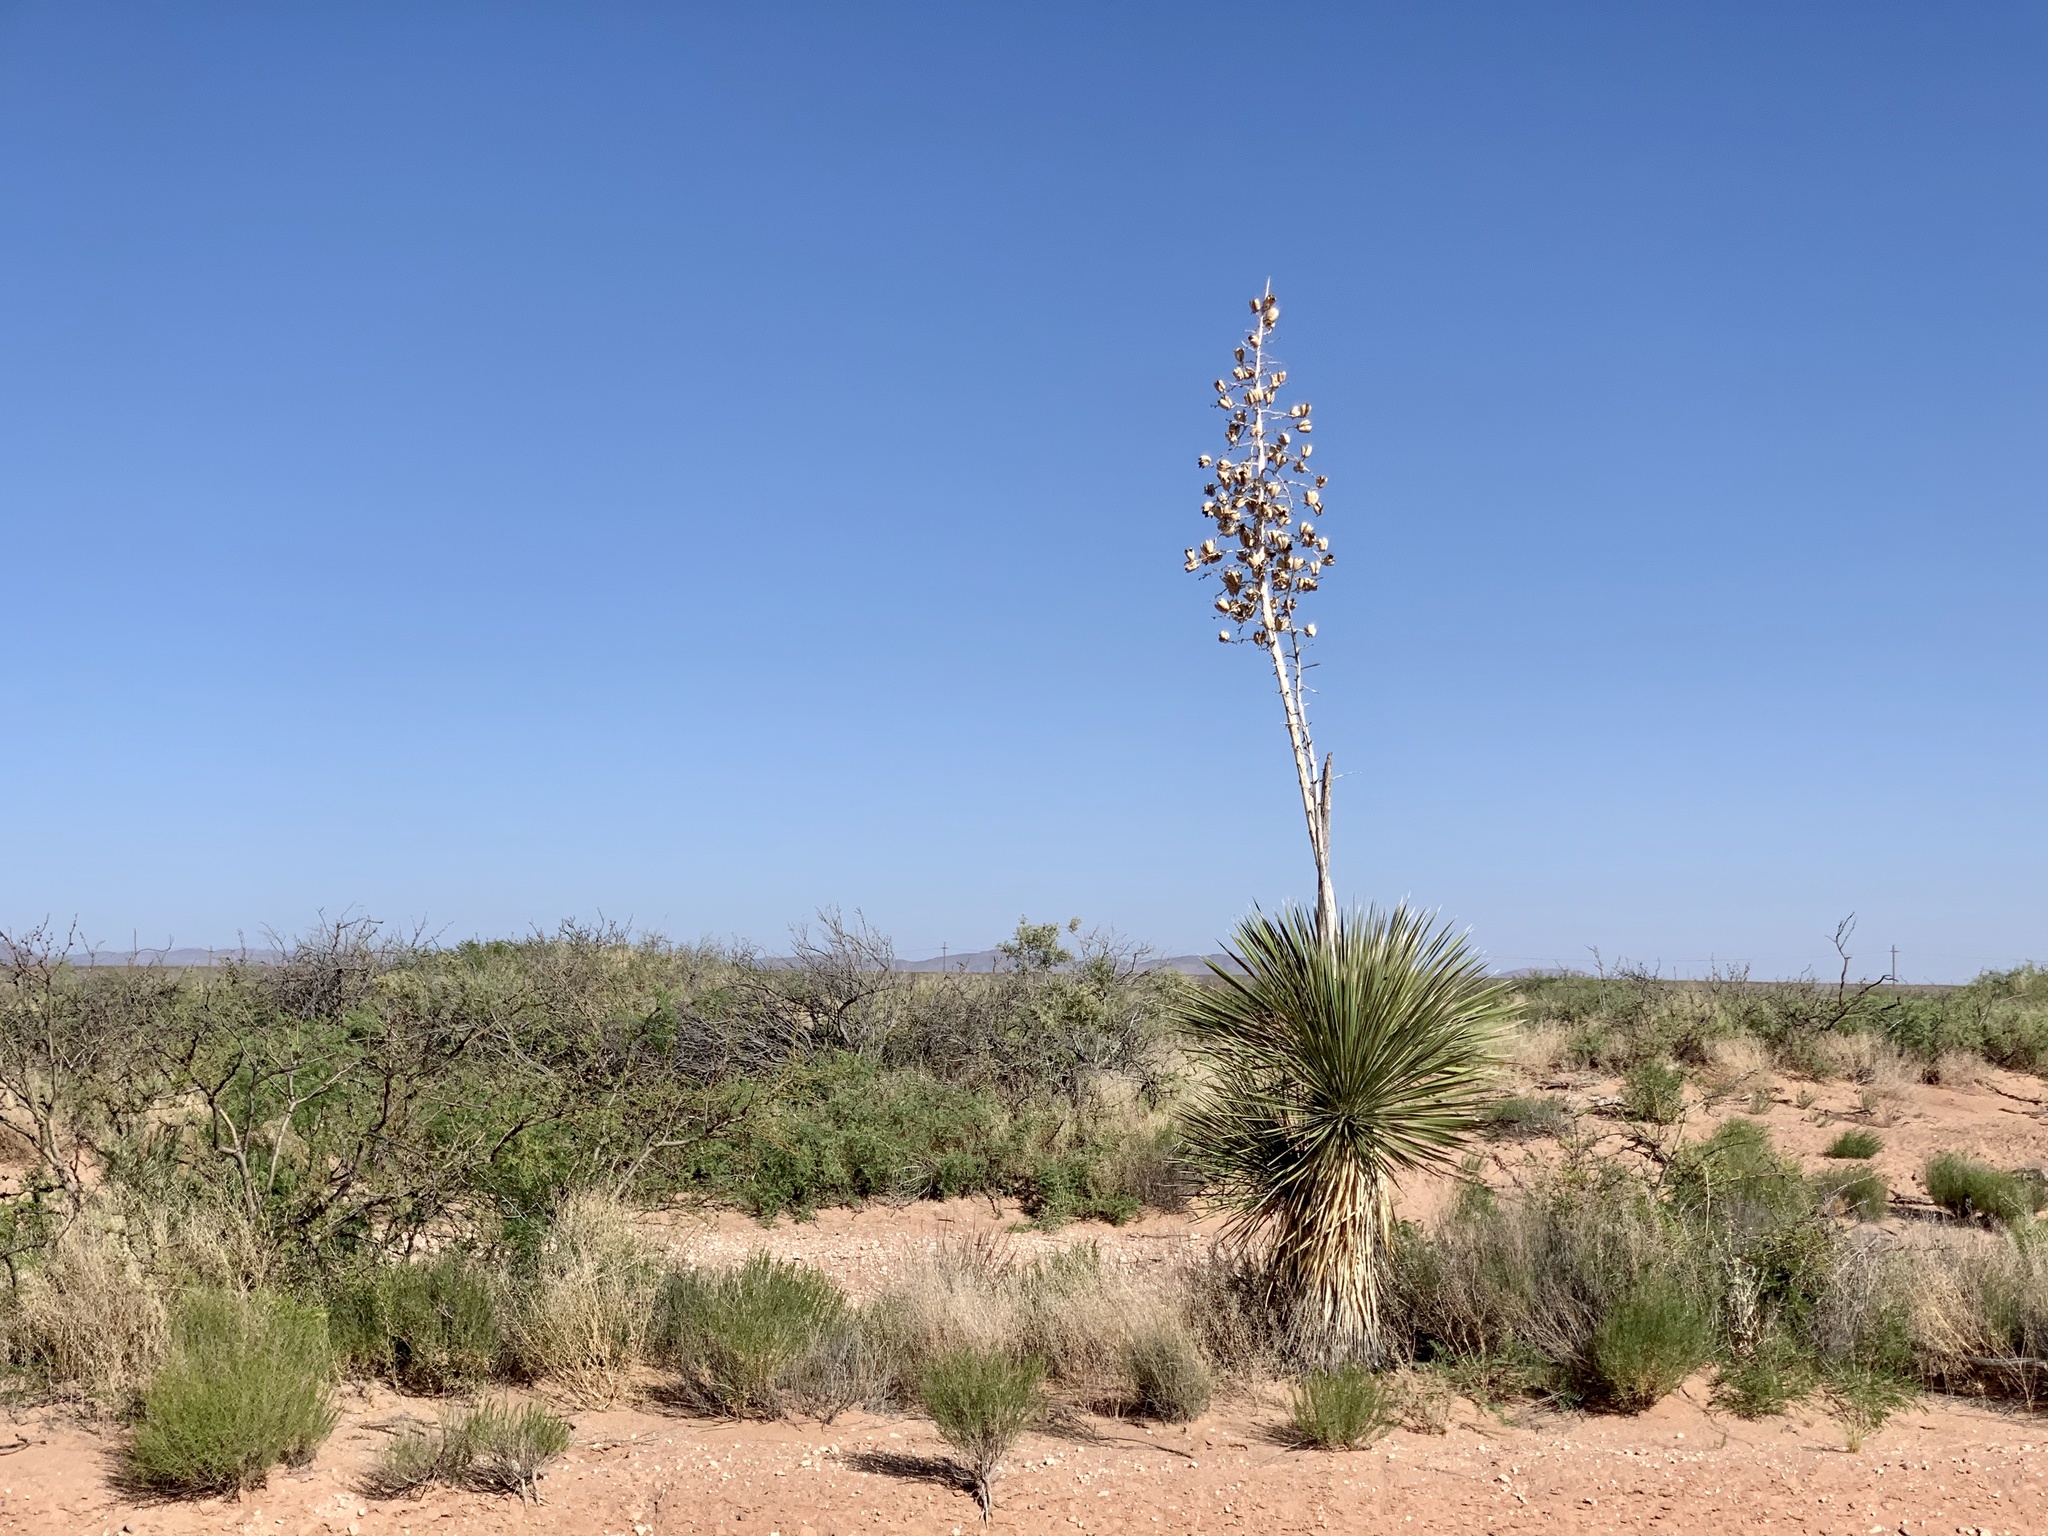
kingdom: Plantae
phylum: Tracheophyta
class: Liliopsida
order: Asparagales
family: Asparagaceae
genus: Yucca
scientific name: Yucca elata
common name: Palmella
